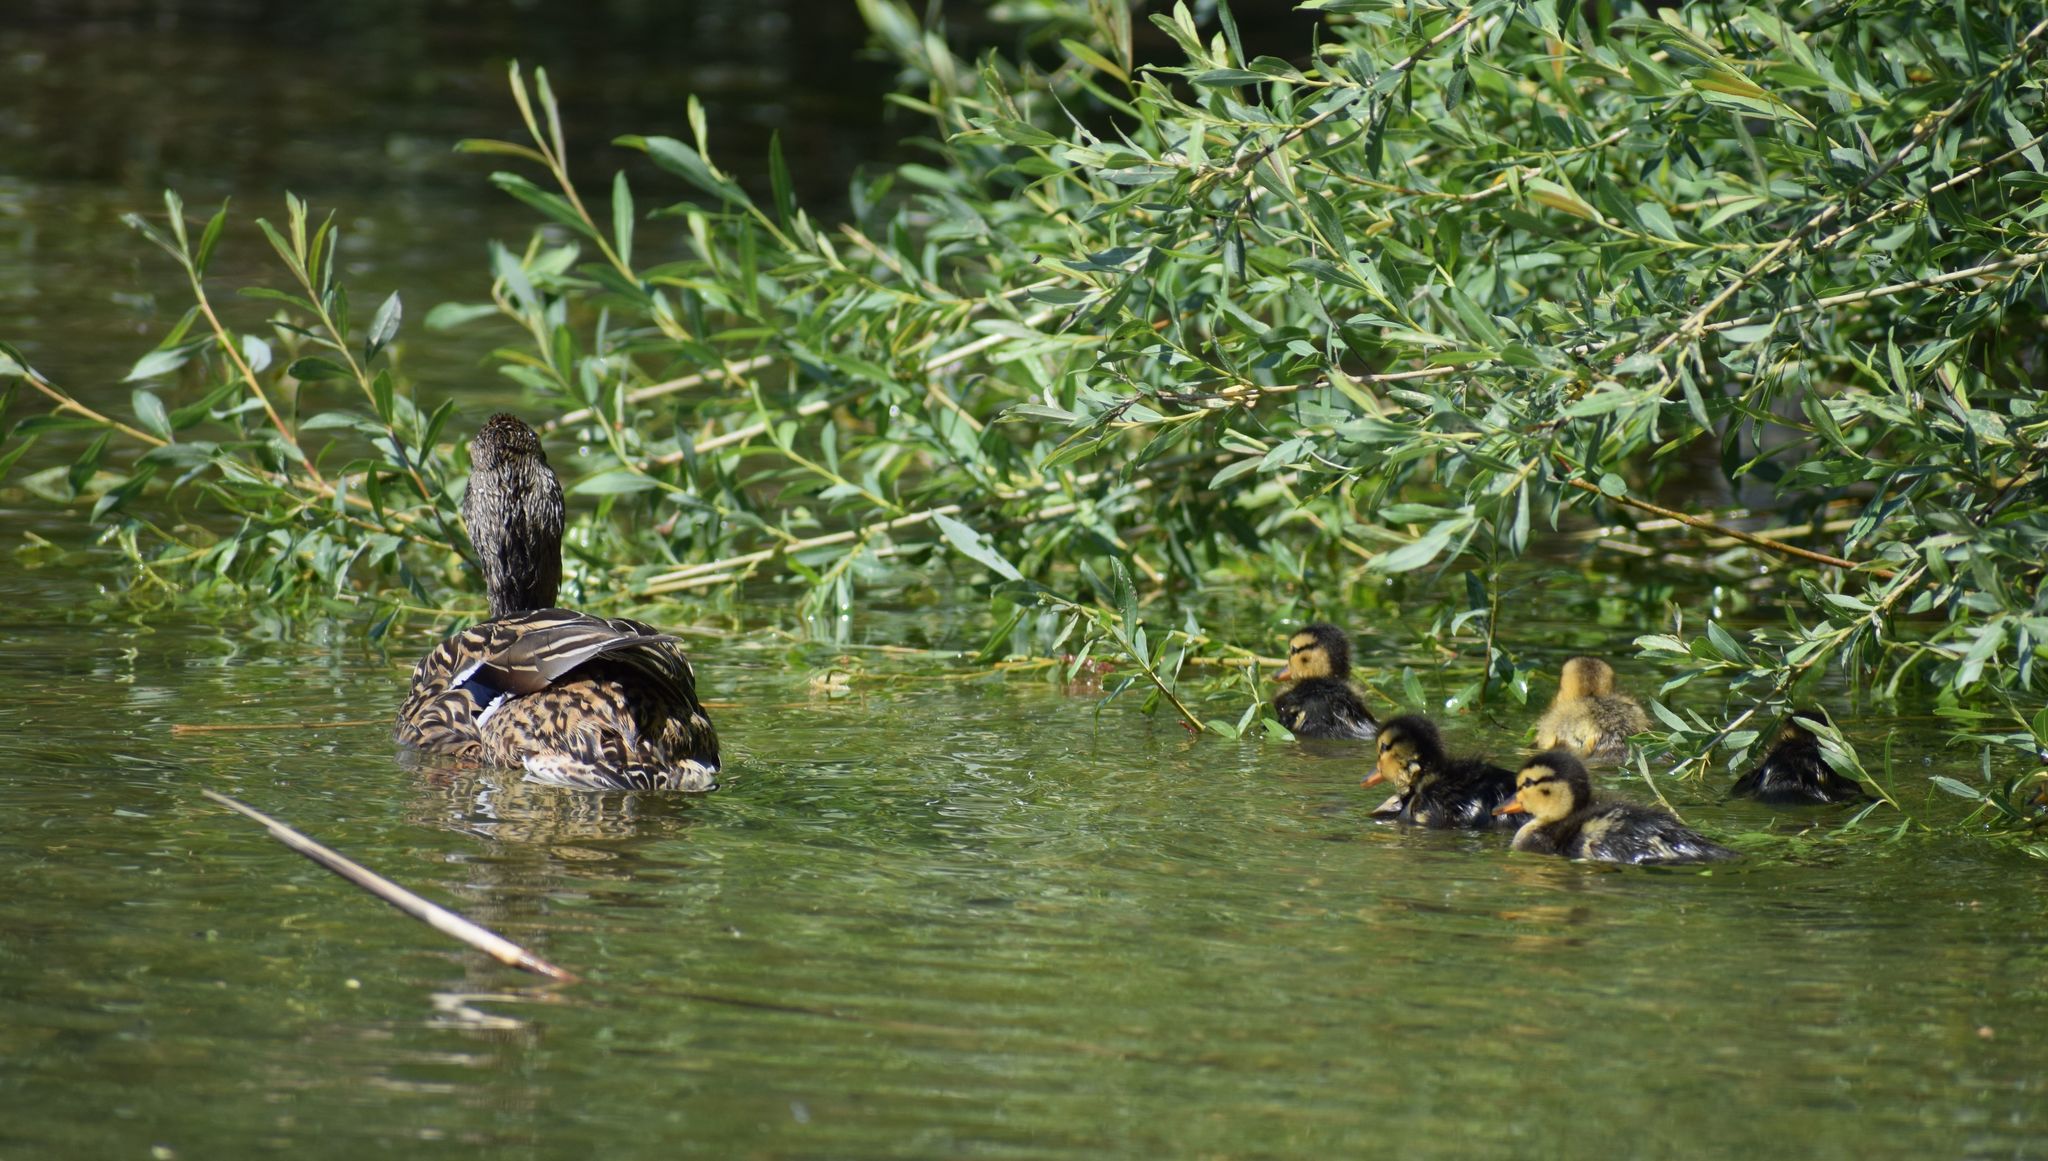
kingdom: Animalia
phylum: Chordata
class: Aves
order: Anseriformes
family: Anatidae
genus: Anas
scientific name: Anas platyrhynchos
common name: Mallard
